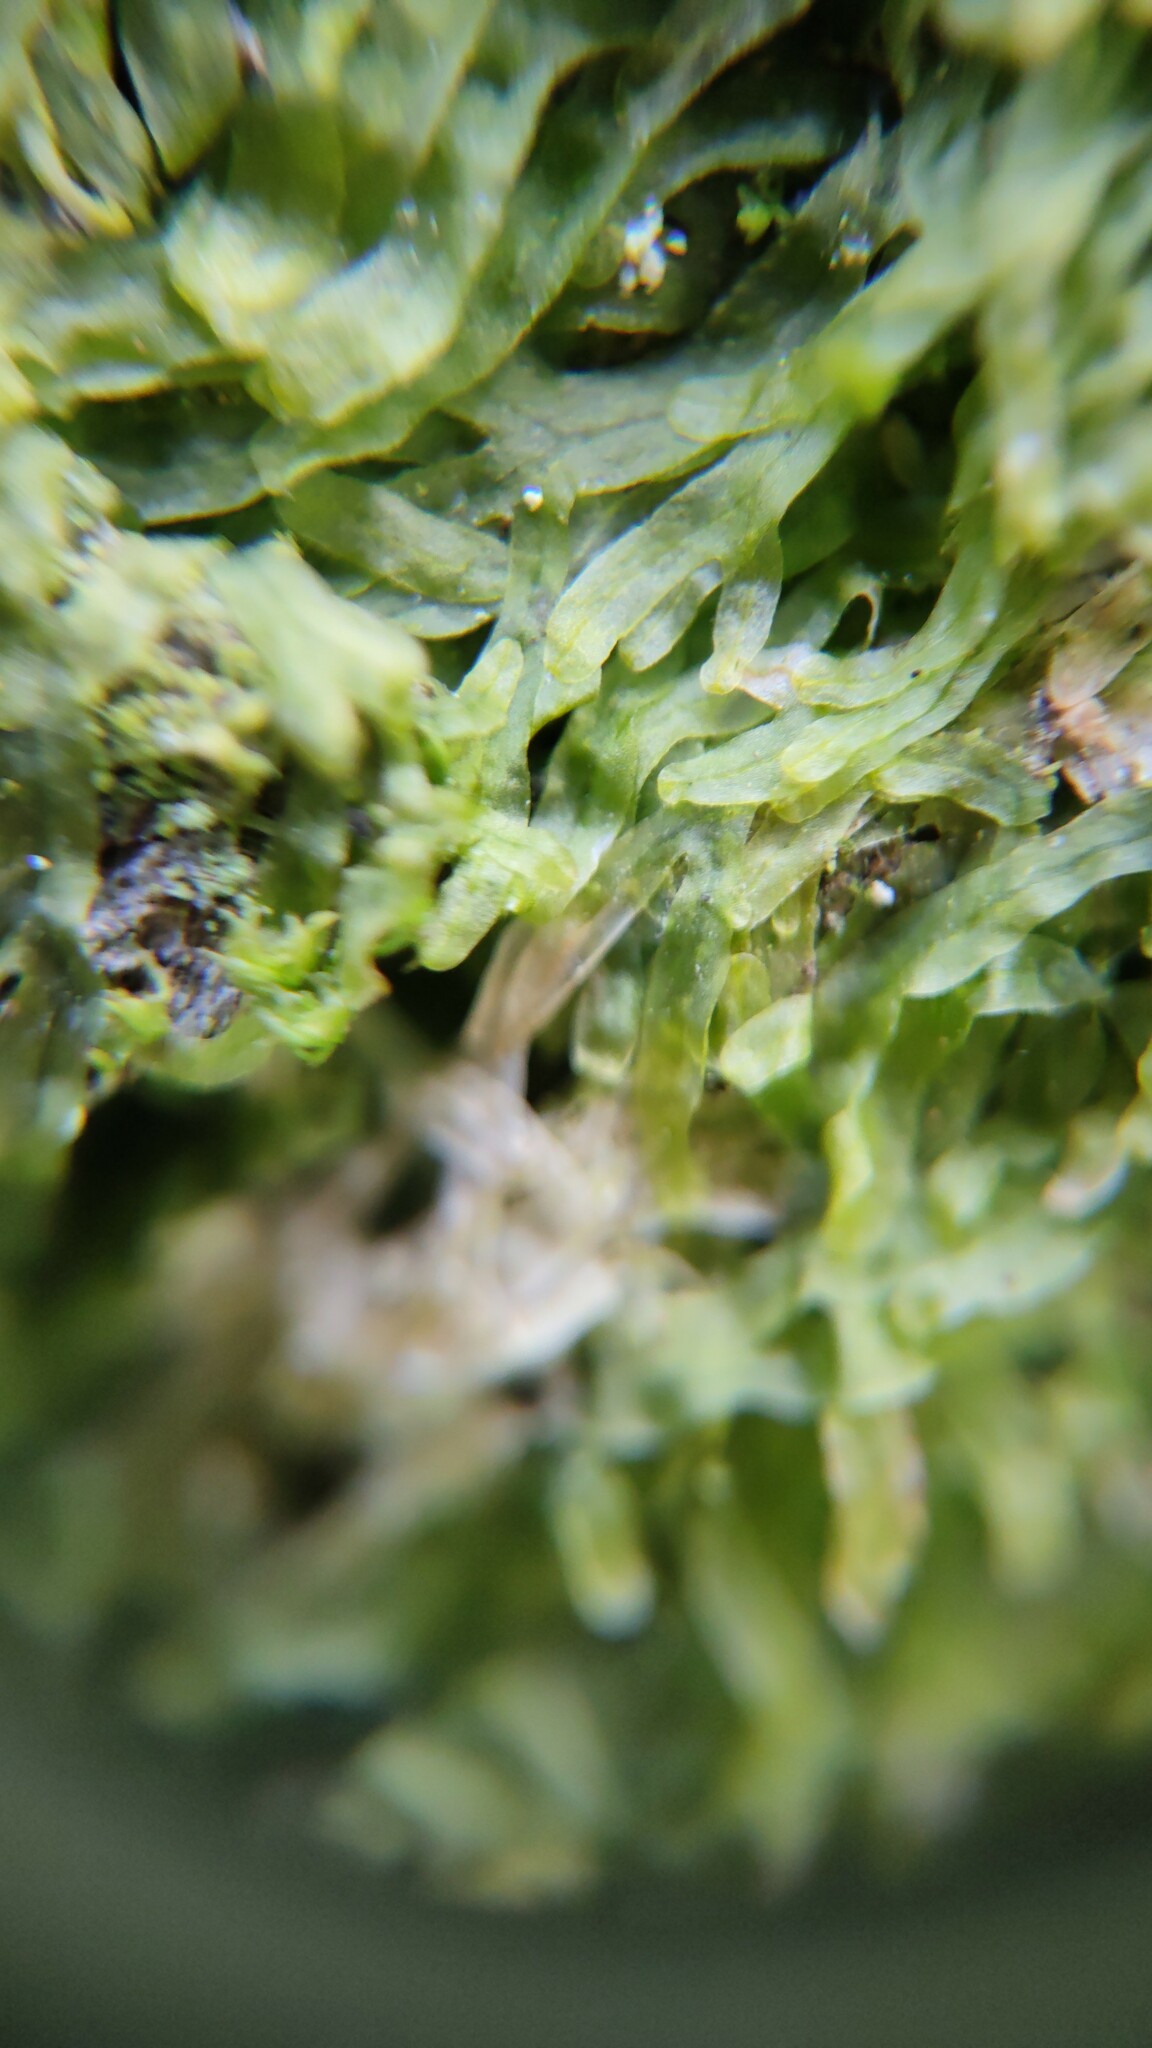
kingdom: Plantae
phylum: Marchantiophyta
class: Jungermanniopsida
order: Metzgeriales
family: Metzgeriaceae
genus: Metzgeria
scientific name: Metzgeria furcata
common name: Forked veilwort
